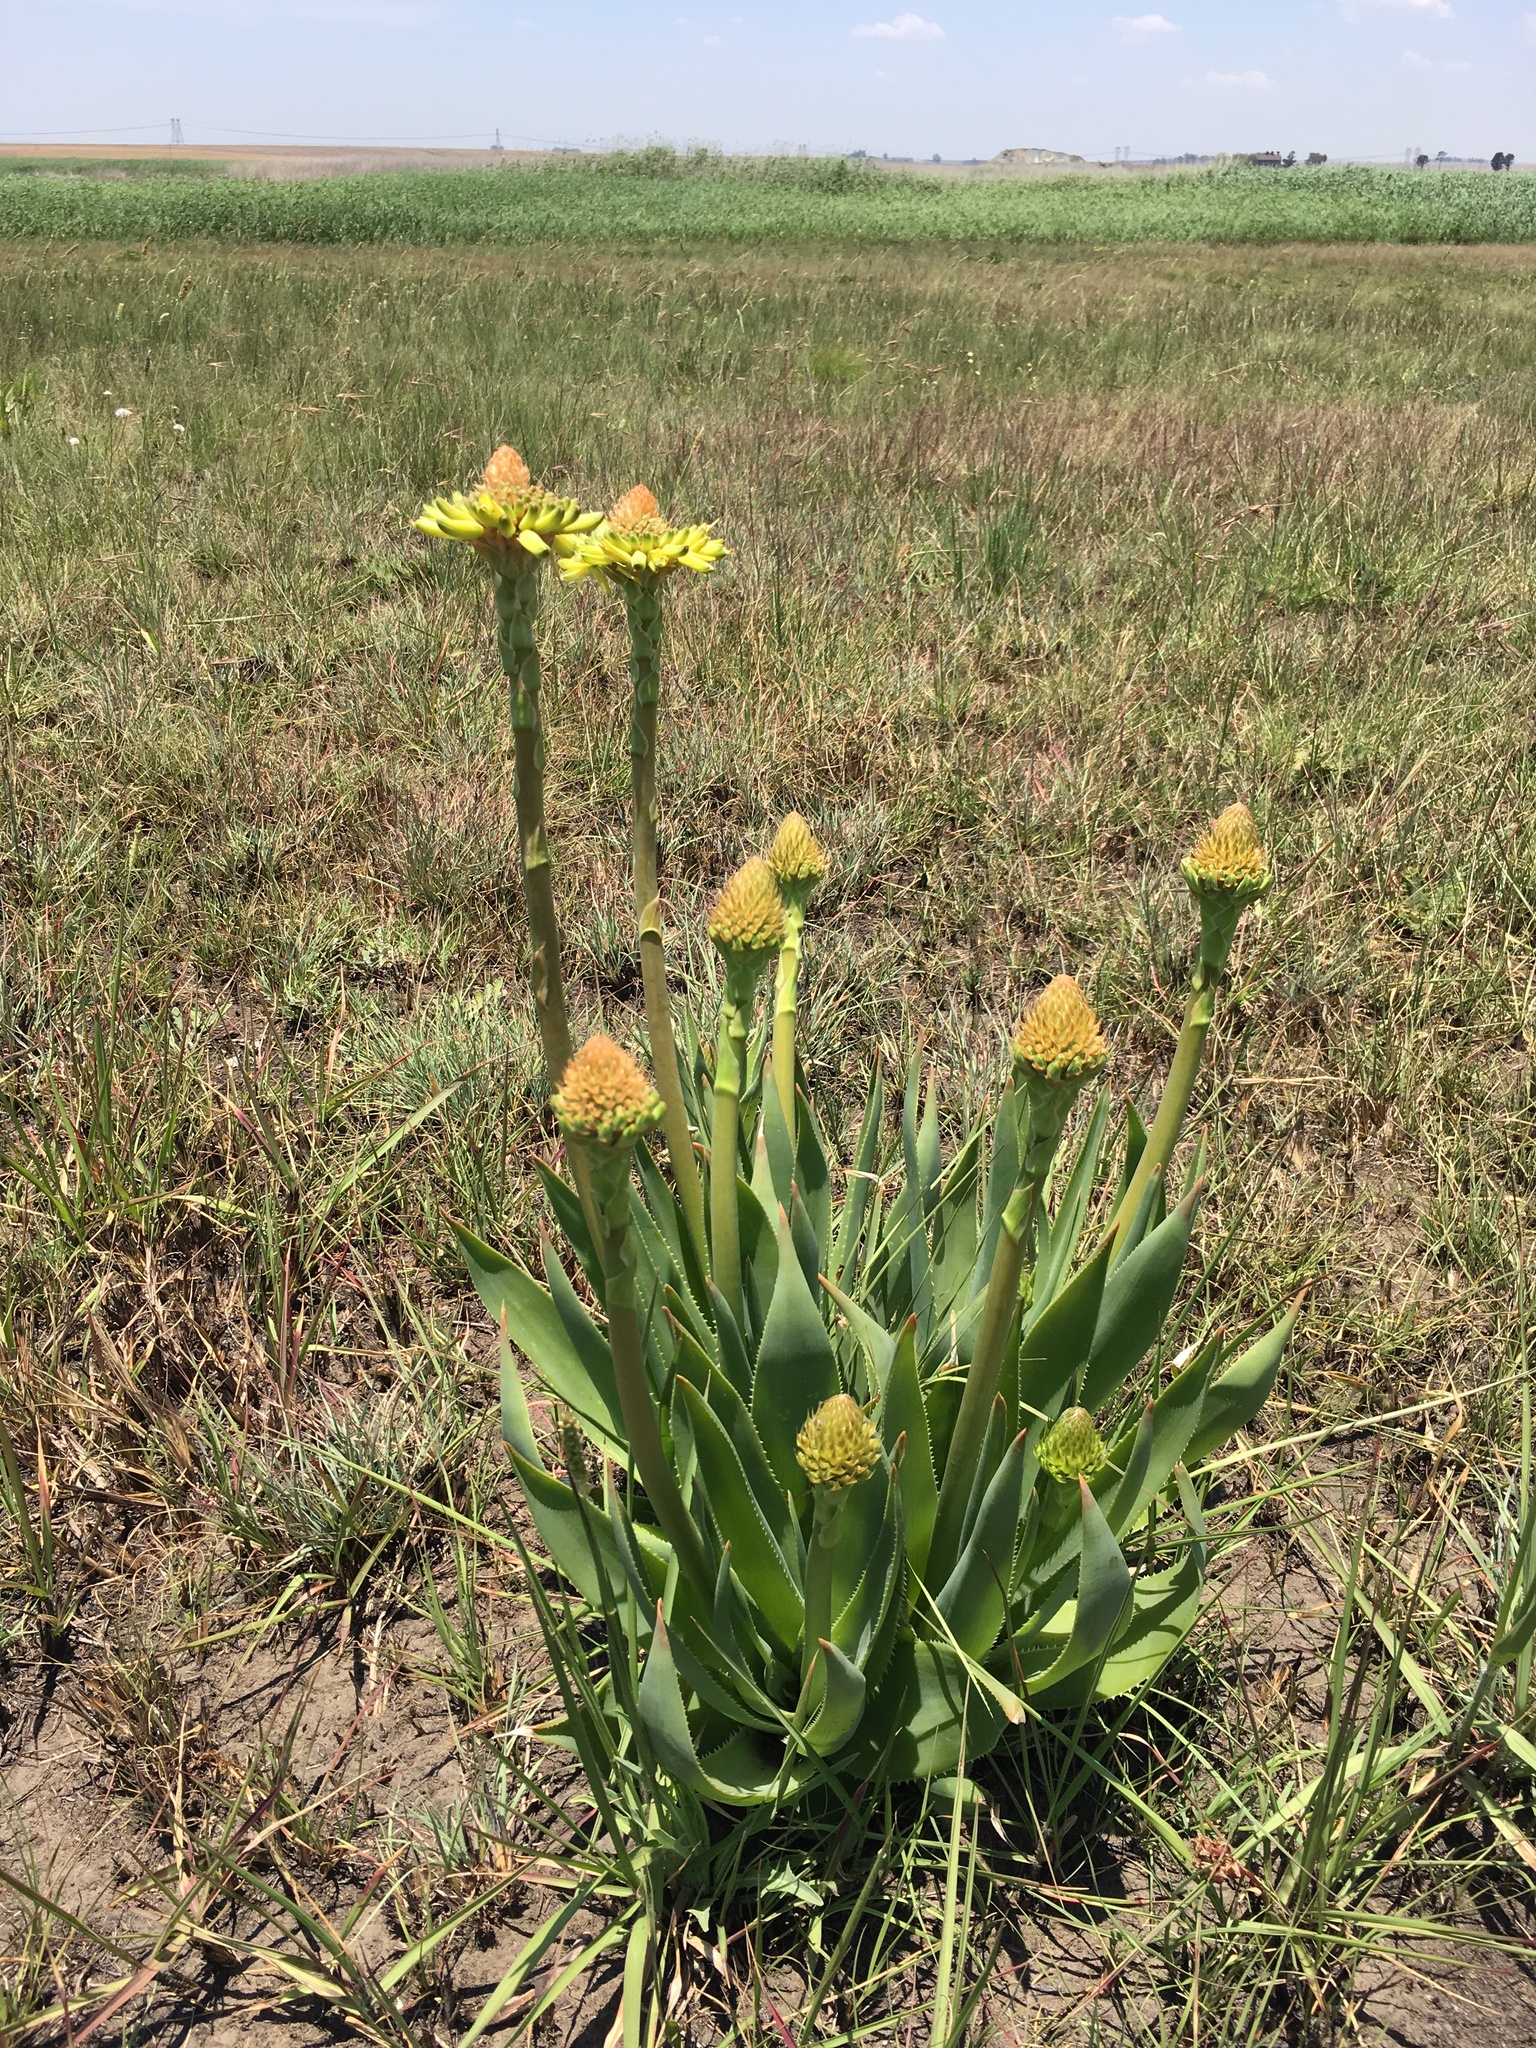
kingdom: Plantae
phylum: Tracheophyta
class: Liliopsida
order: Asparagales
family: Asphodelaceae
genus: Aloe
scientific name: Aloe ecklonis
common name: Ecklon's aloe
